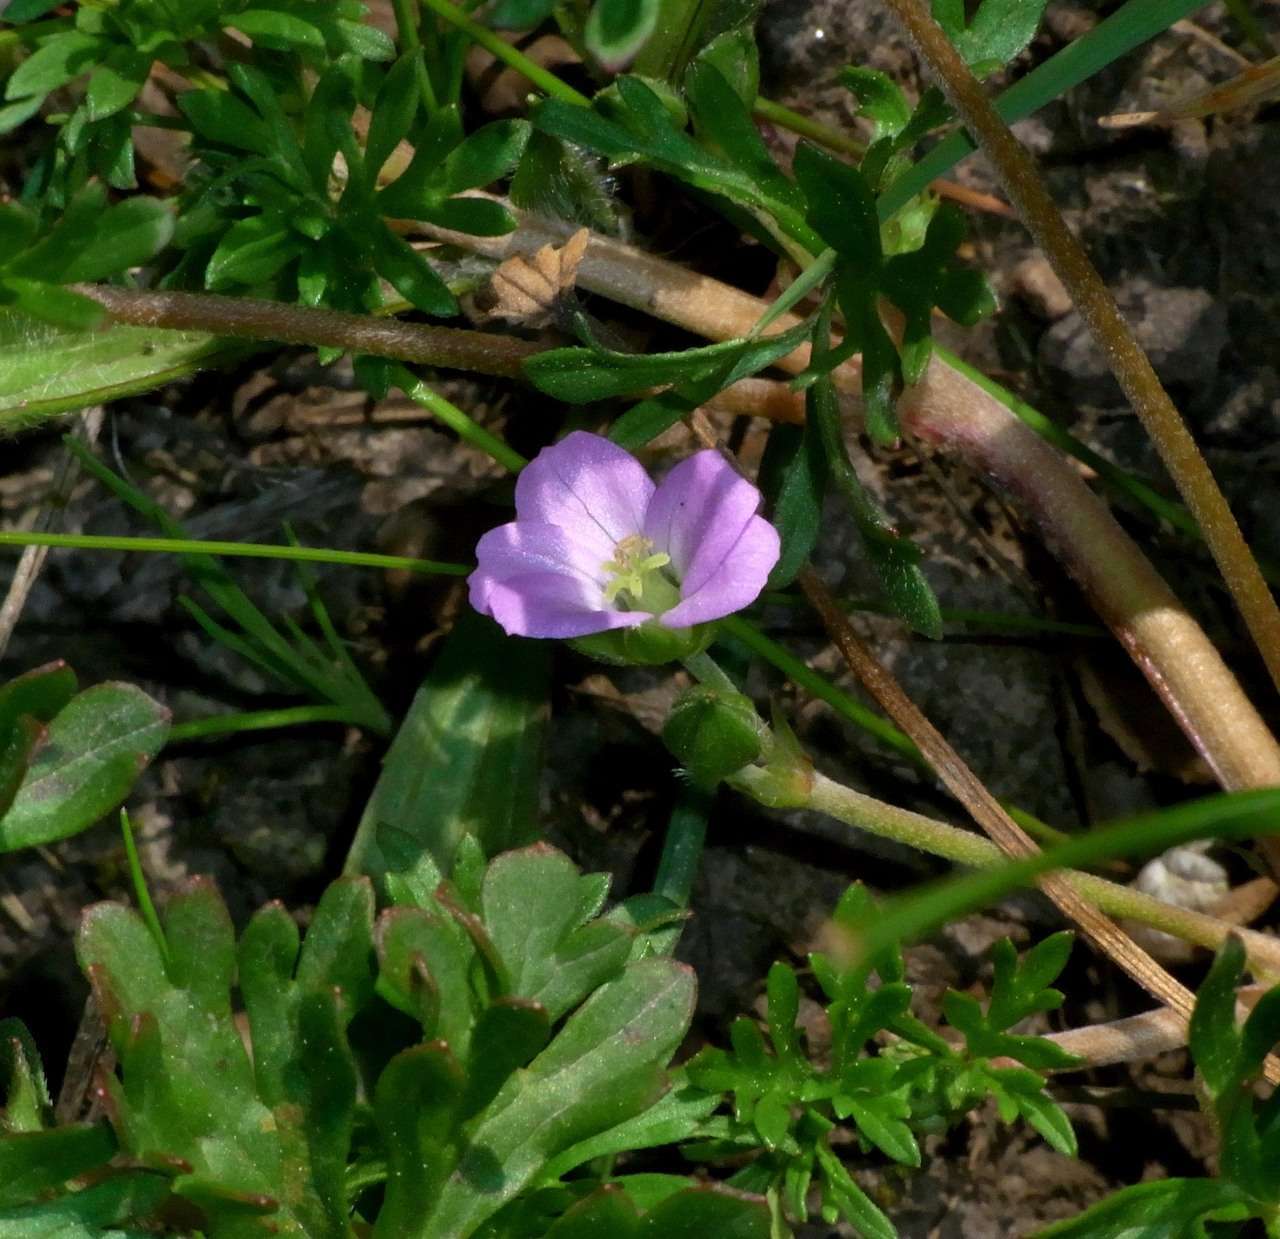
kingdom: Plantae
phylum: Tracheophyta
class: Magnoliopsida
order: Geraniales
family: Geraniaceae
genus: Geranium
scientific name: Geranium retrorsum
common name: New zealand geranium
